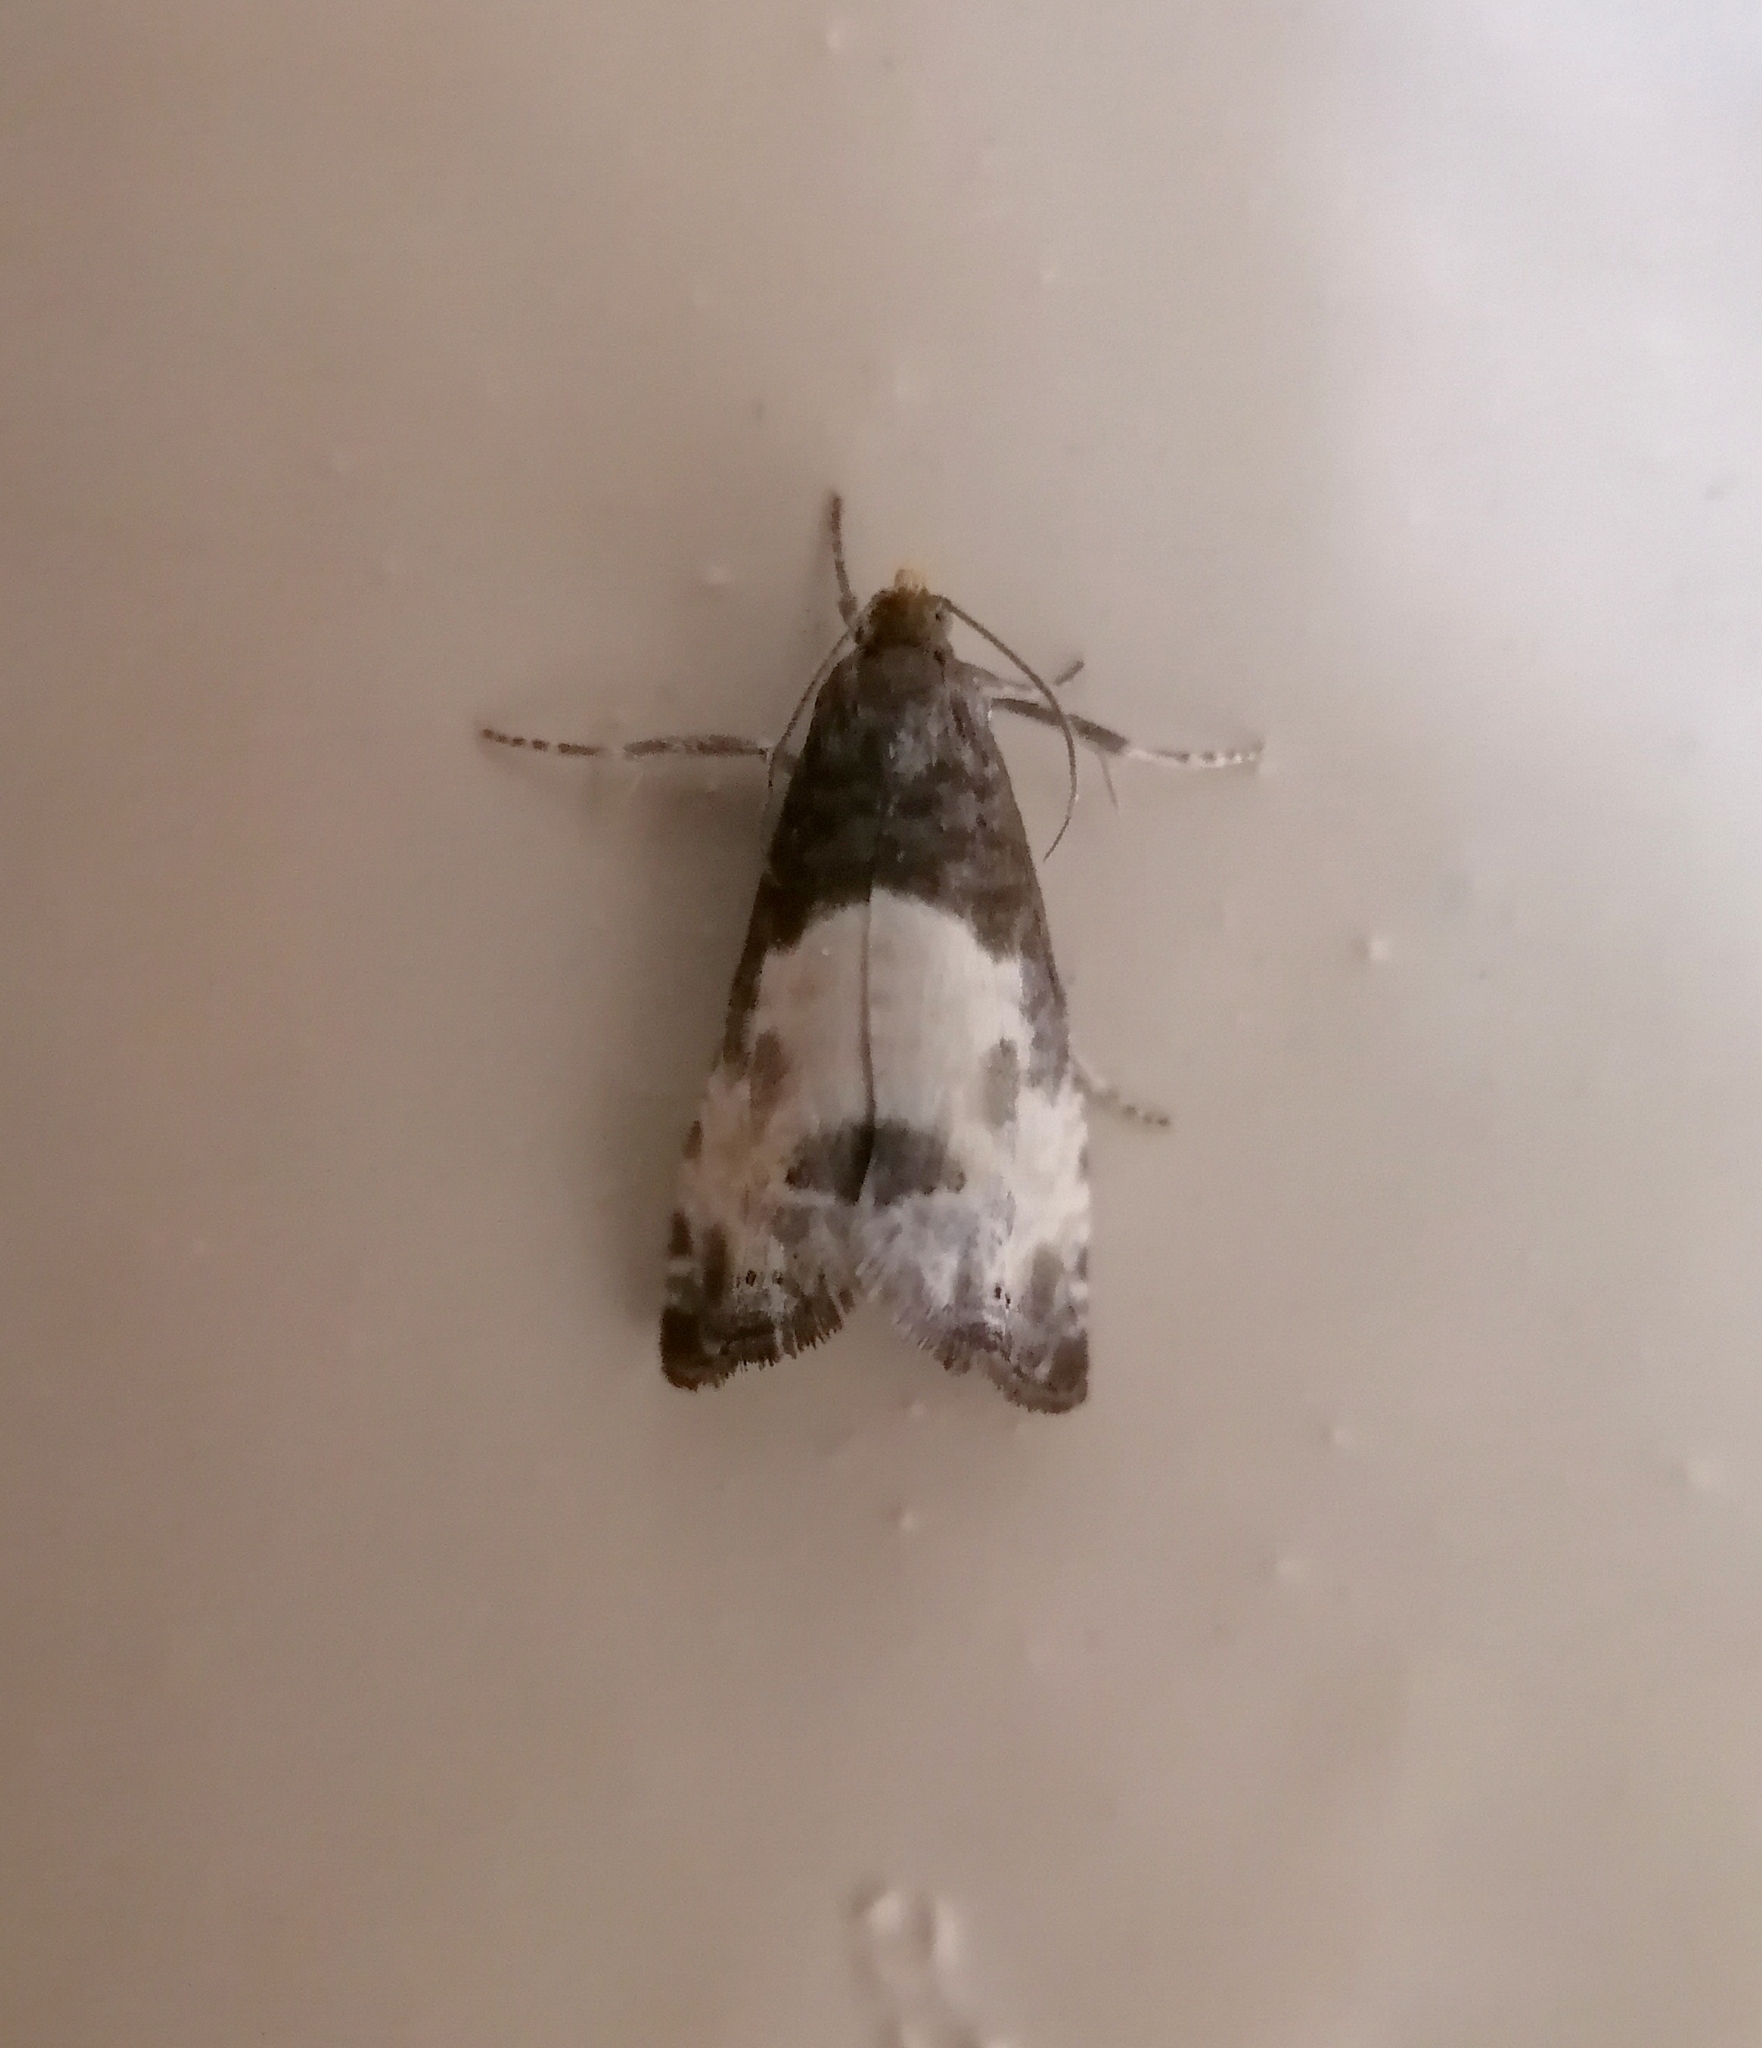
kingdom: Animalia
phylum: Arthropoda
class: Insecta
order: Lepidoptera
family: Tortricidae
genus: Notocelia
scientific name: Notocelia cynosbatella
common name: Yellow-faced bell moth
